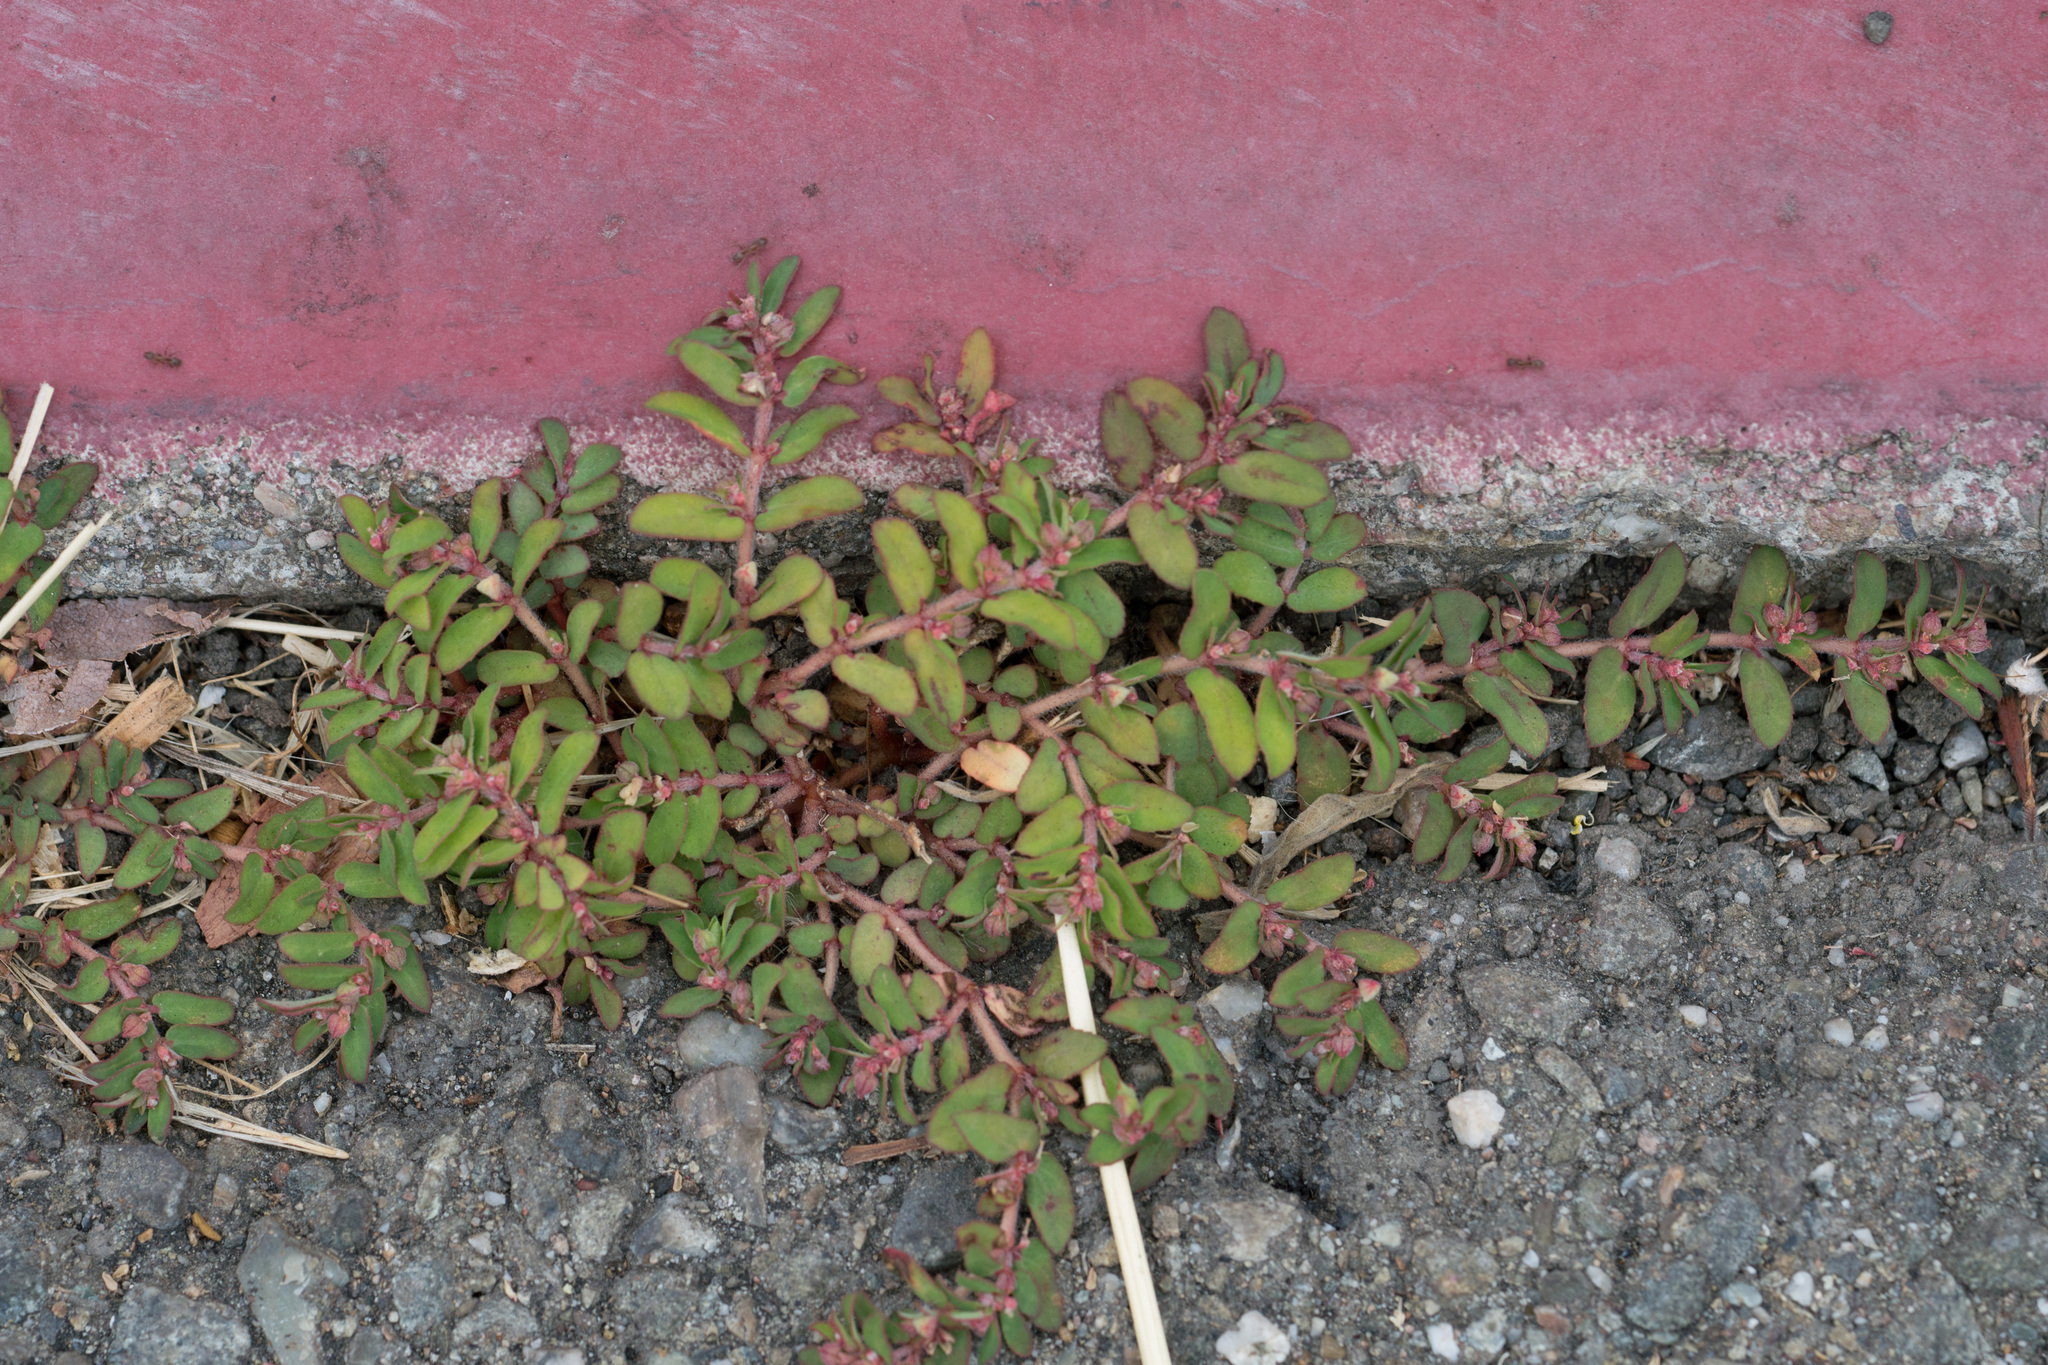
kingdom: Plantae
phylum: Tracheophyta
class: Magnoliopsida
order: Malpighiales
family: Euphorbiaceae
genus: Euphorbia
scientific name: Euphorbia maculata
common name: Spotted spurge
